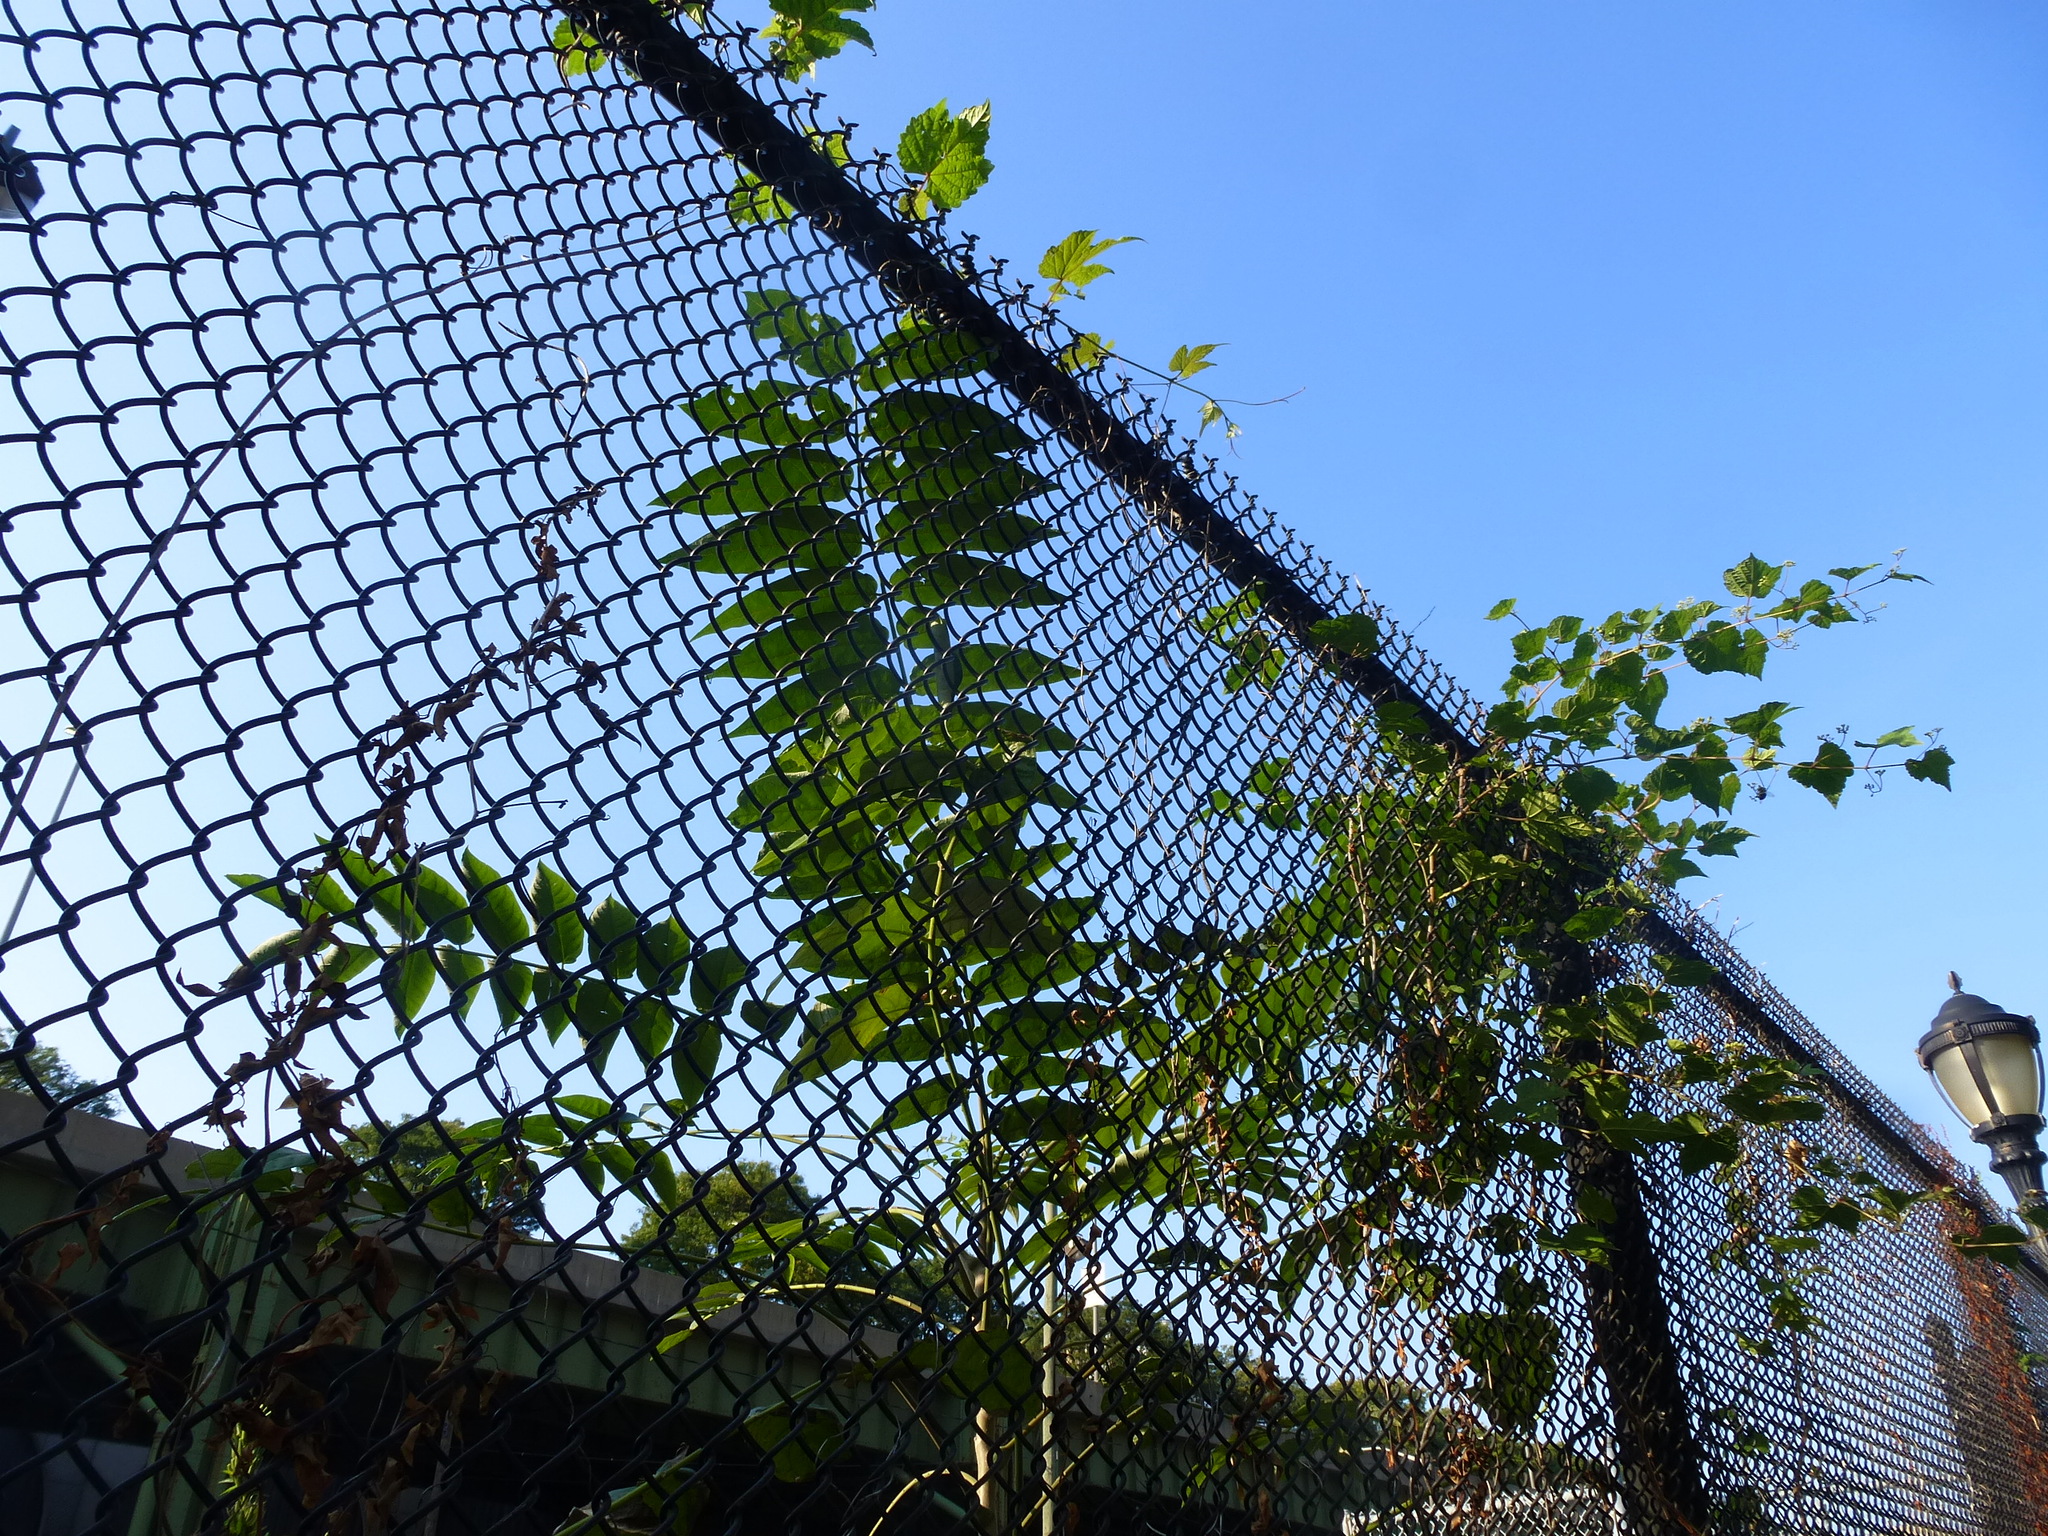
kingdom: Plantae
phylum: Tracheophyta
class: Magnoliopsida
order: Sapindales
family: Simaroubaceae
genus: Ailanthus
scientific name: Ailanthus altissima
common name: Tree-of-heaven
